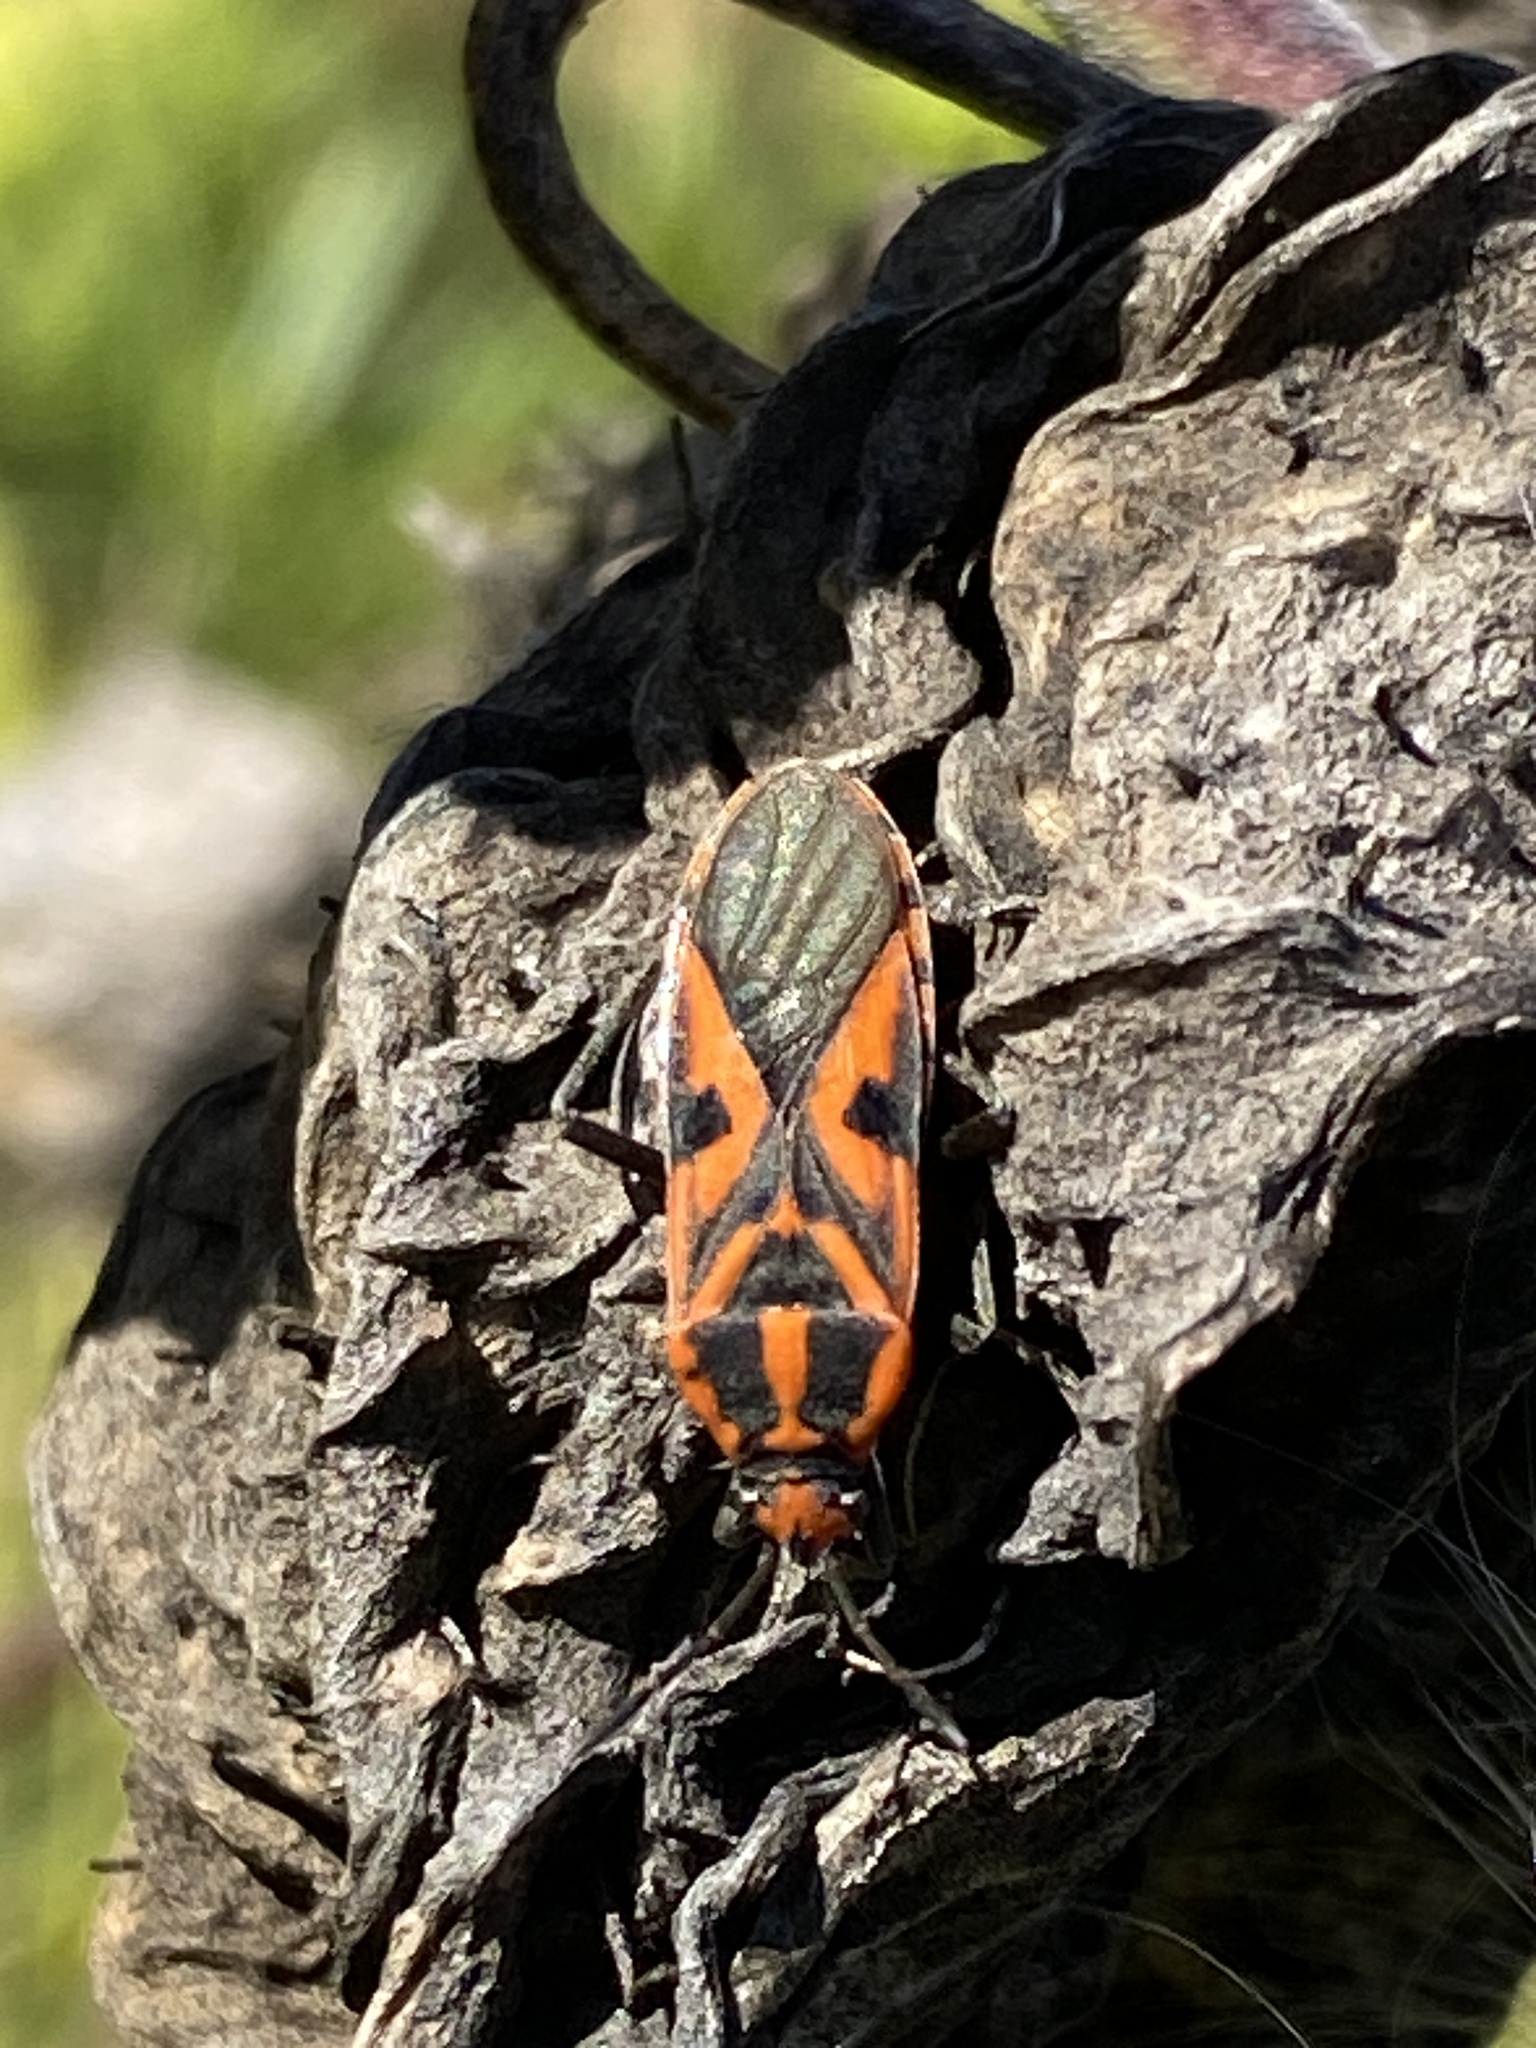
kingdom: Animalia
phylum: Arthropoda
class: Insecta
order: Hemiptera
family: Lygaeidae
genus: Spilostethus
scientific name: Spilostethus hospes
